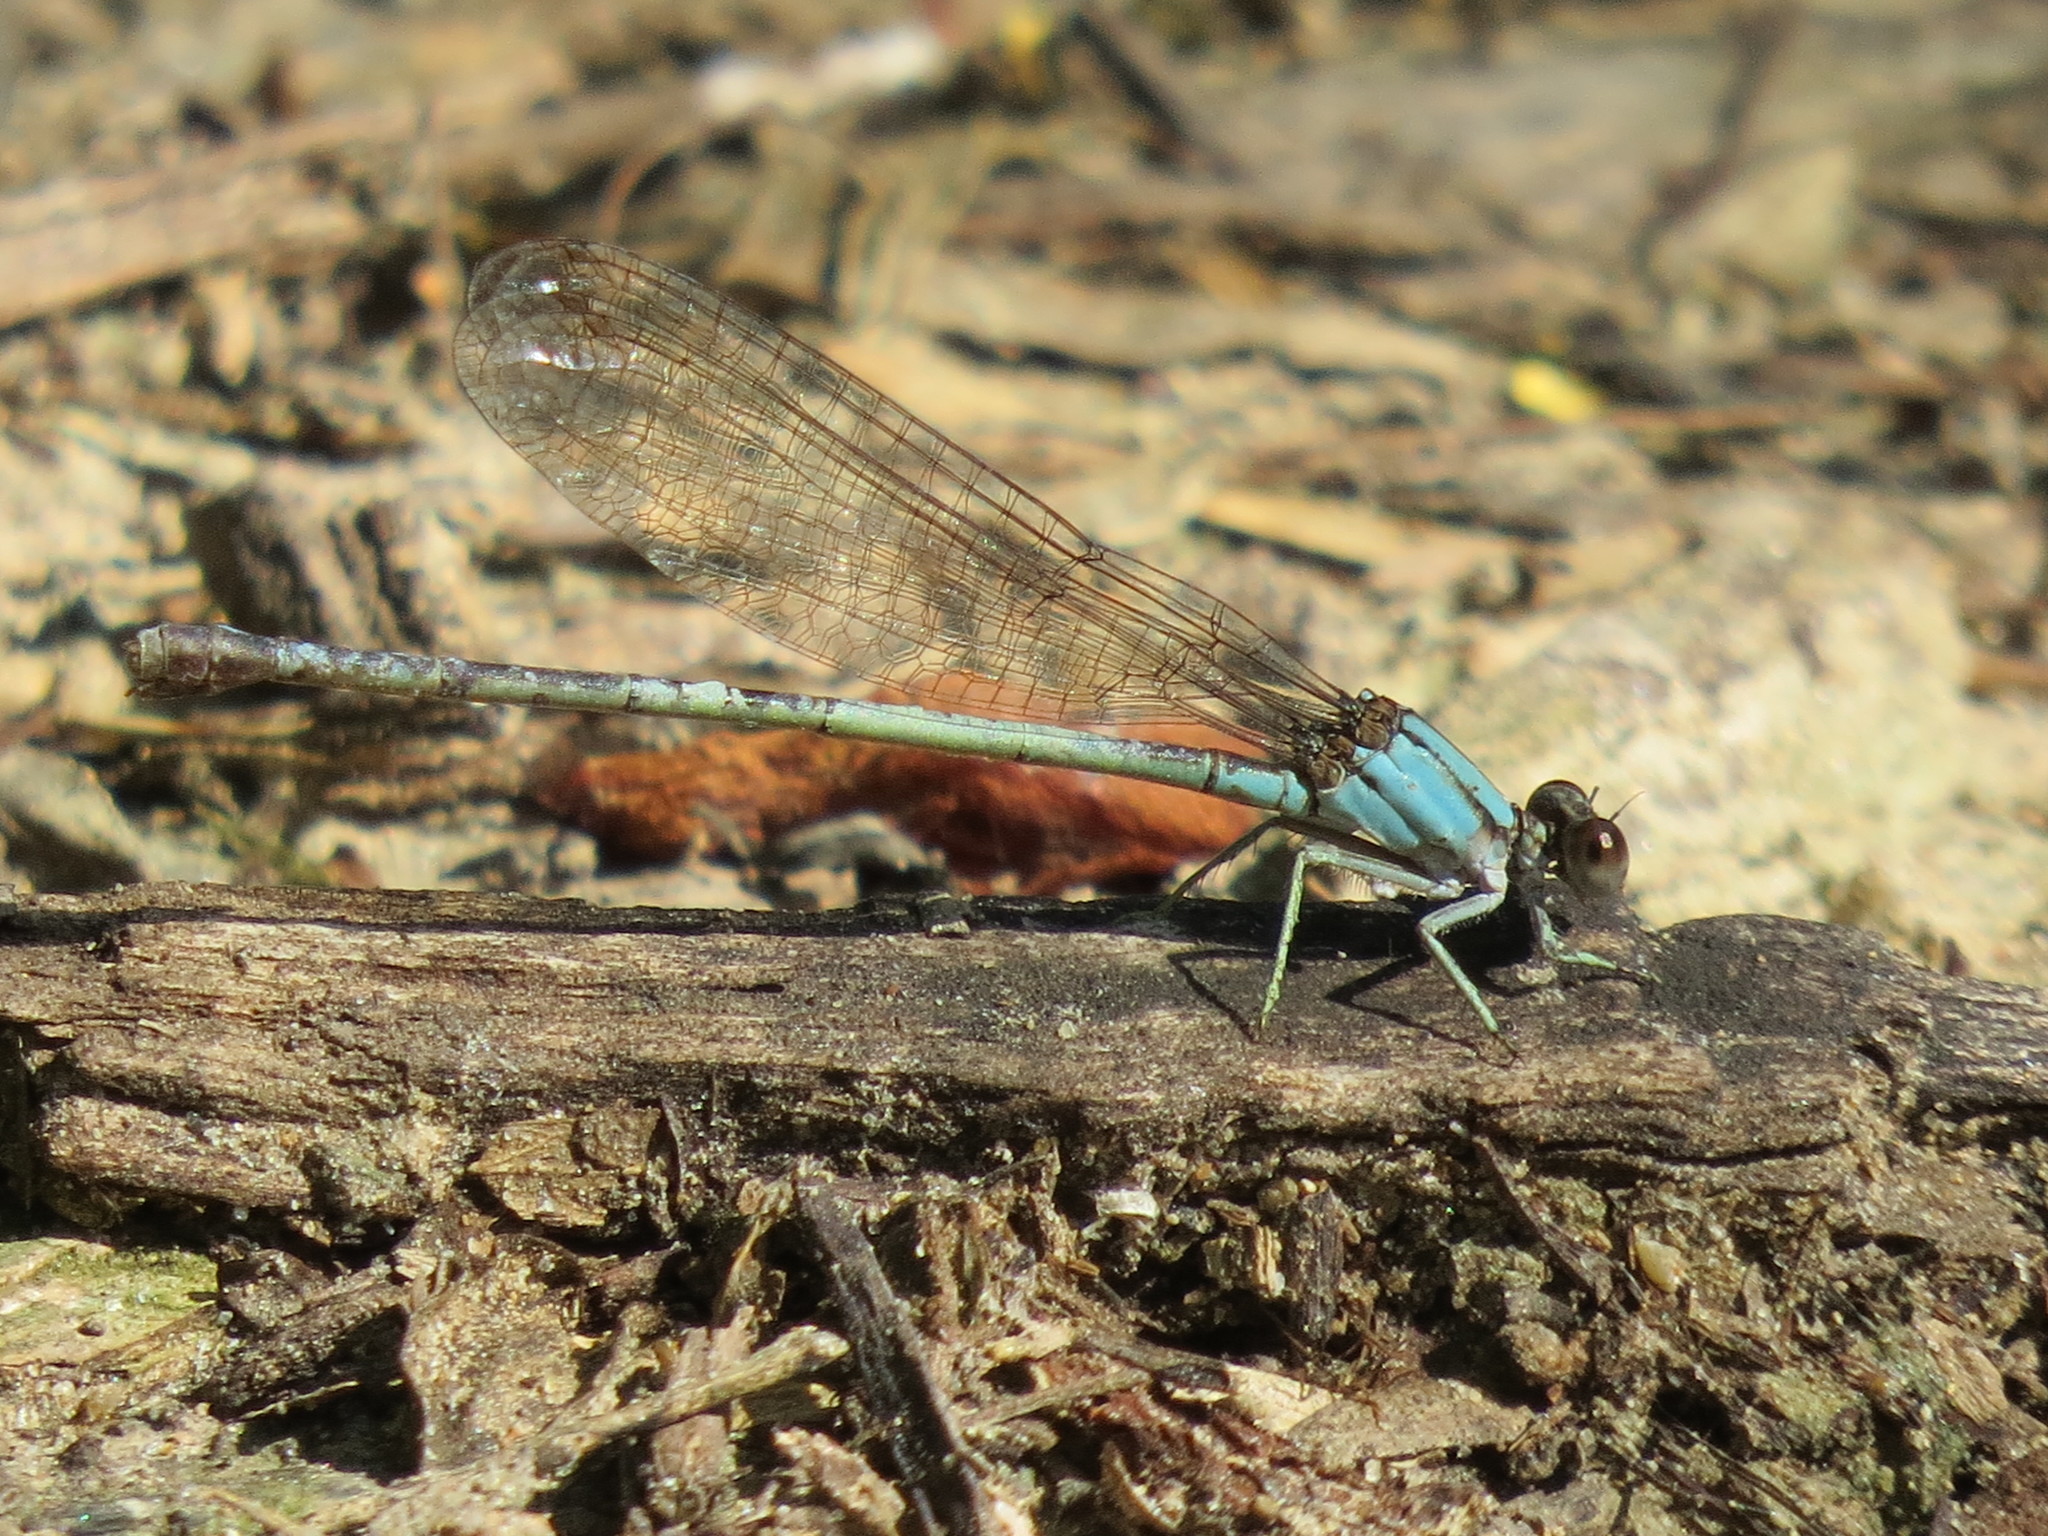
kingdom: Animalia
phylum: Arthropoda
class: Insecta
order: Odonata
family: Coenagrionidae
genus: Argia
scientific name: Argia moesta
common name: Powdered dancer
